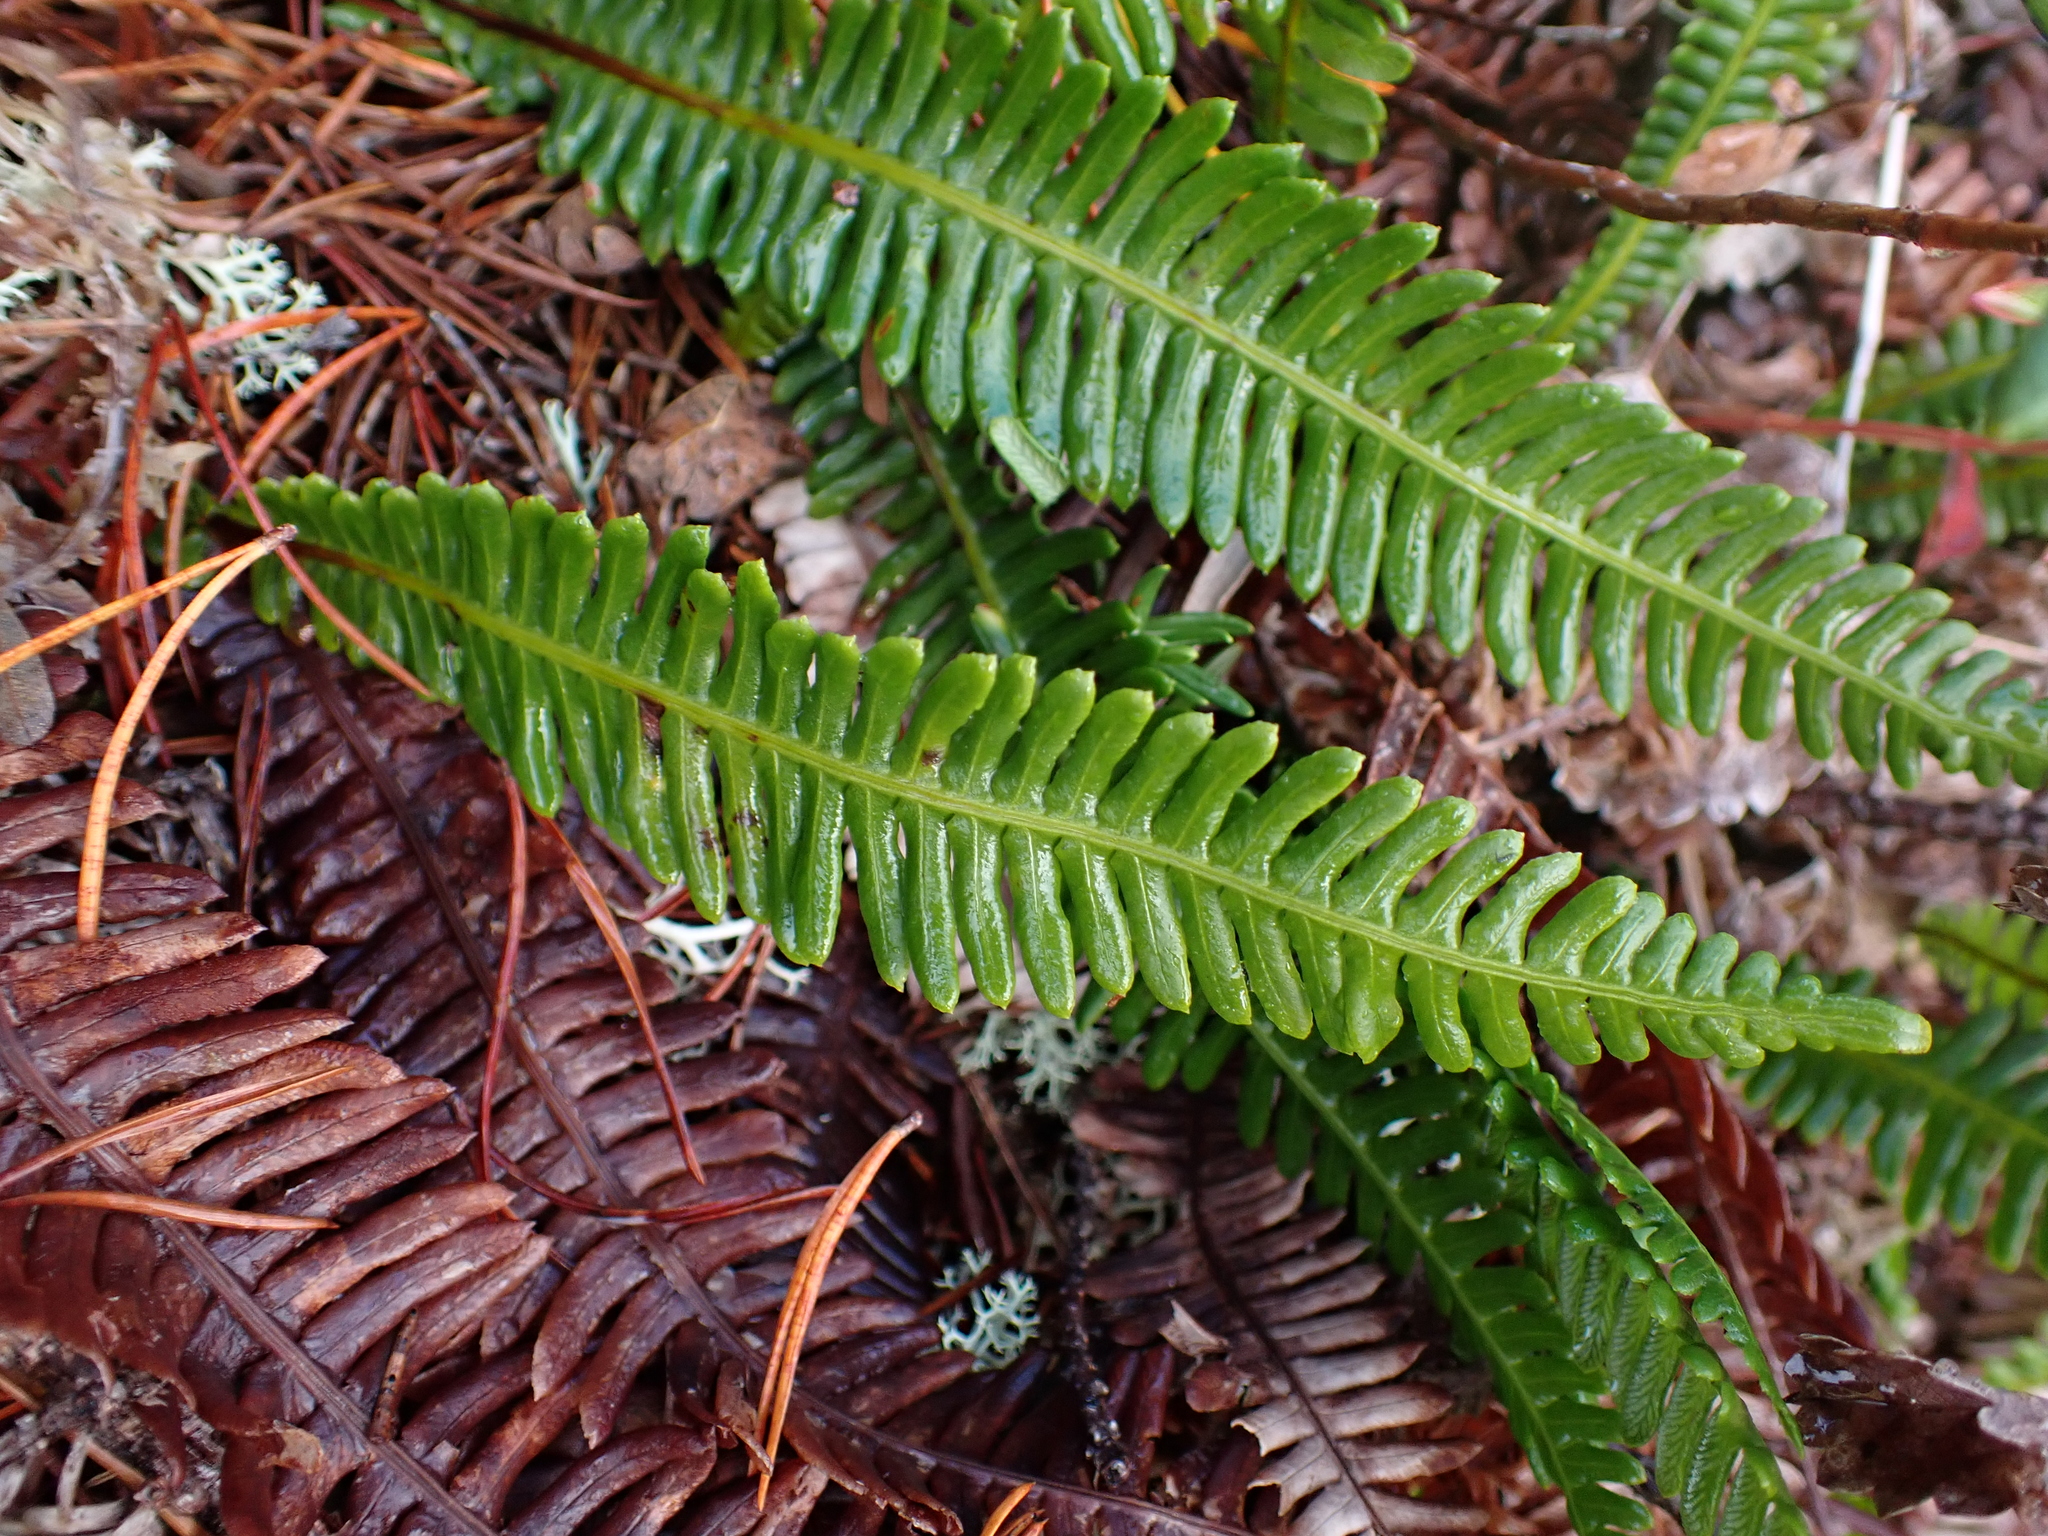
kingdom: Plantae
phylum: Tracheophyta
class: Polypodiopsida
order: Polypodiales
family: Blechnaceae
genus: Struthiopteris
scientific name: Struthiopteris spicant
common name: Deer fern
